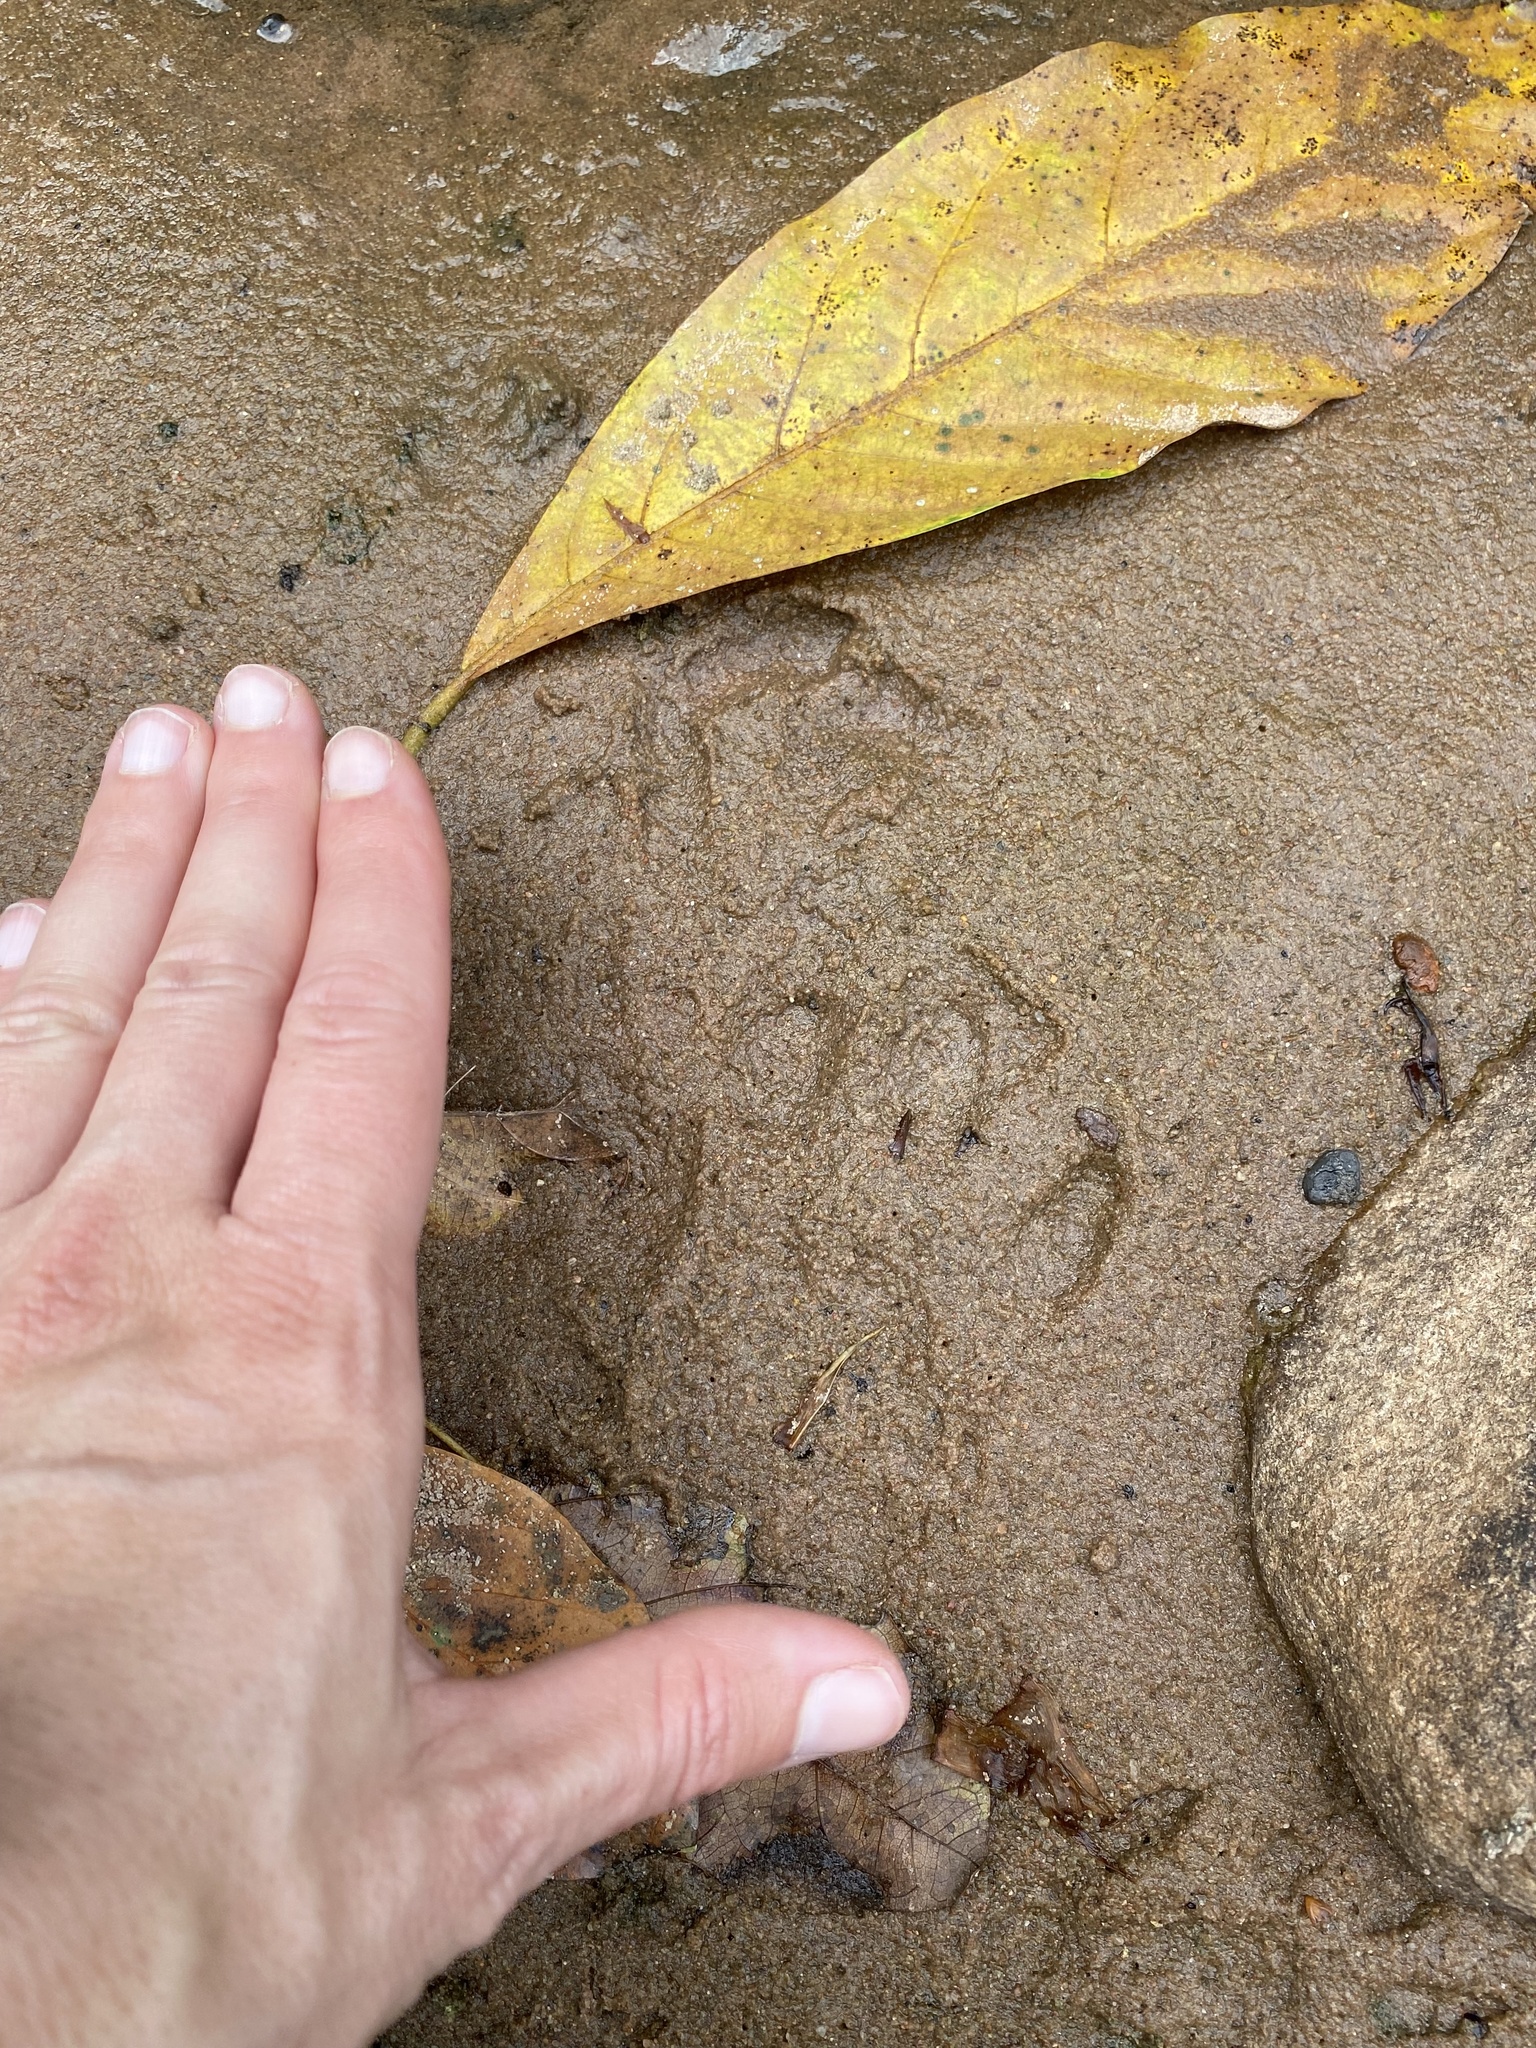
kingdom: Animalia
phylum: Chordata
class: Mammalia
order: Carnivora
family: Mustelidae
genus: Aonyx
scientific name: Aonyx capensis
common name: African clawless otter
